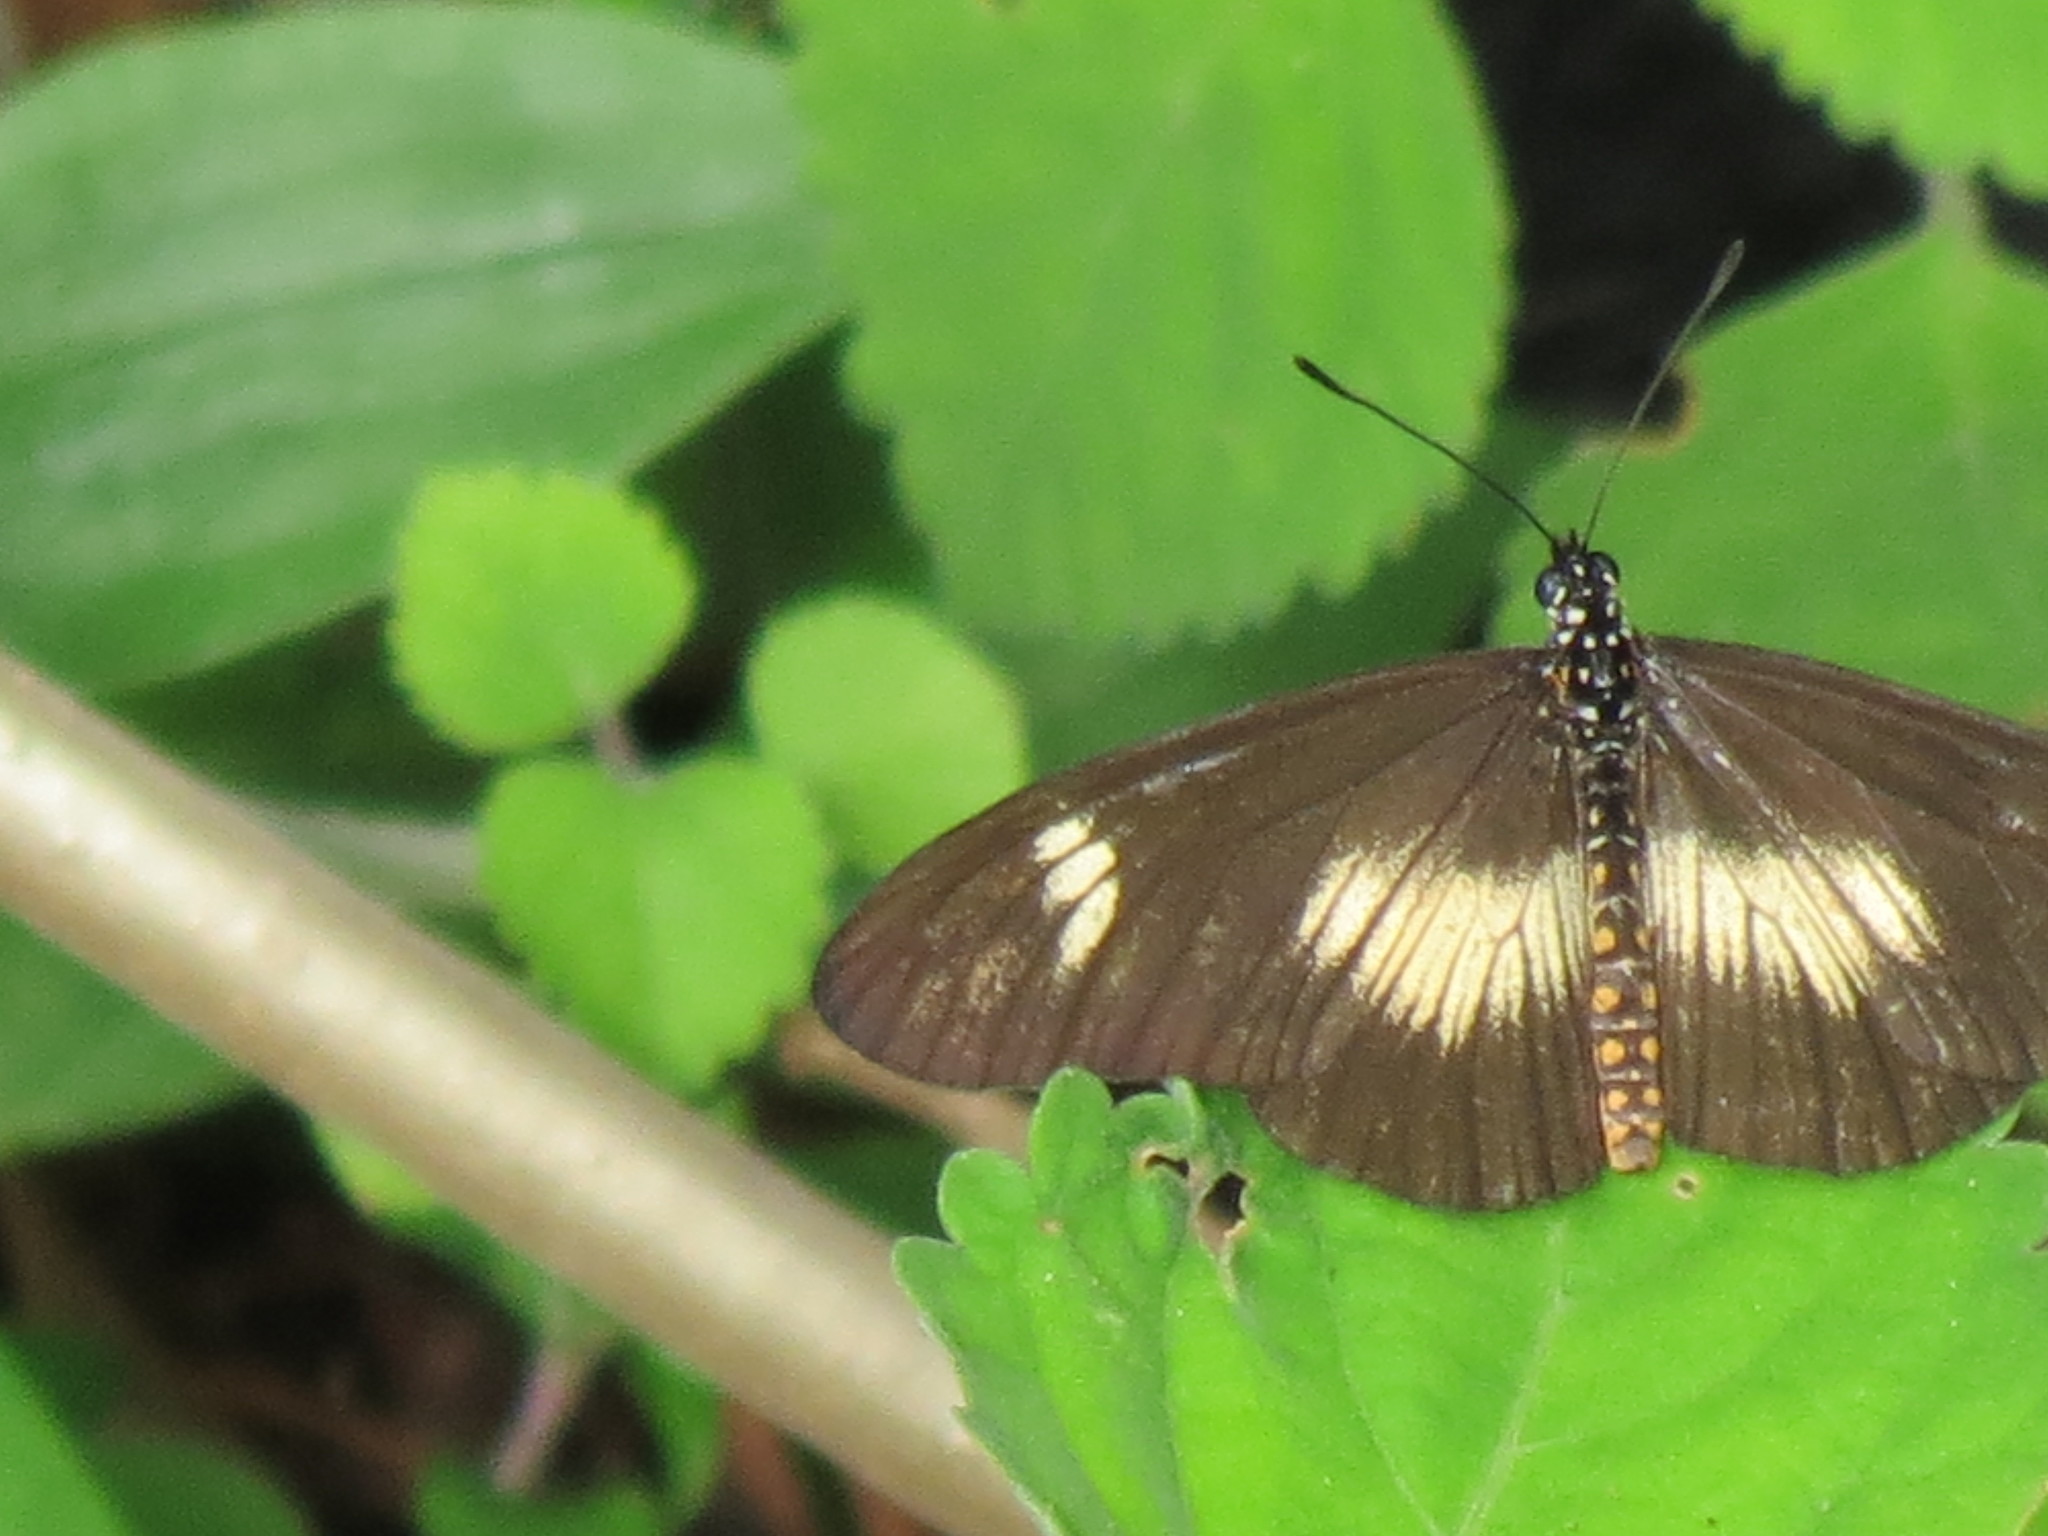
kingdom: Animalia
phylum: Arthropoda
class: Insecta
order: Lepidoptera
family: Nymphalidae
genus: Acraea
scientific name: Acraea esebria
